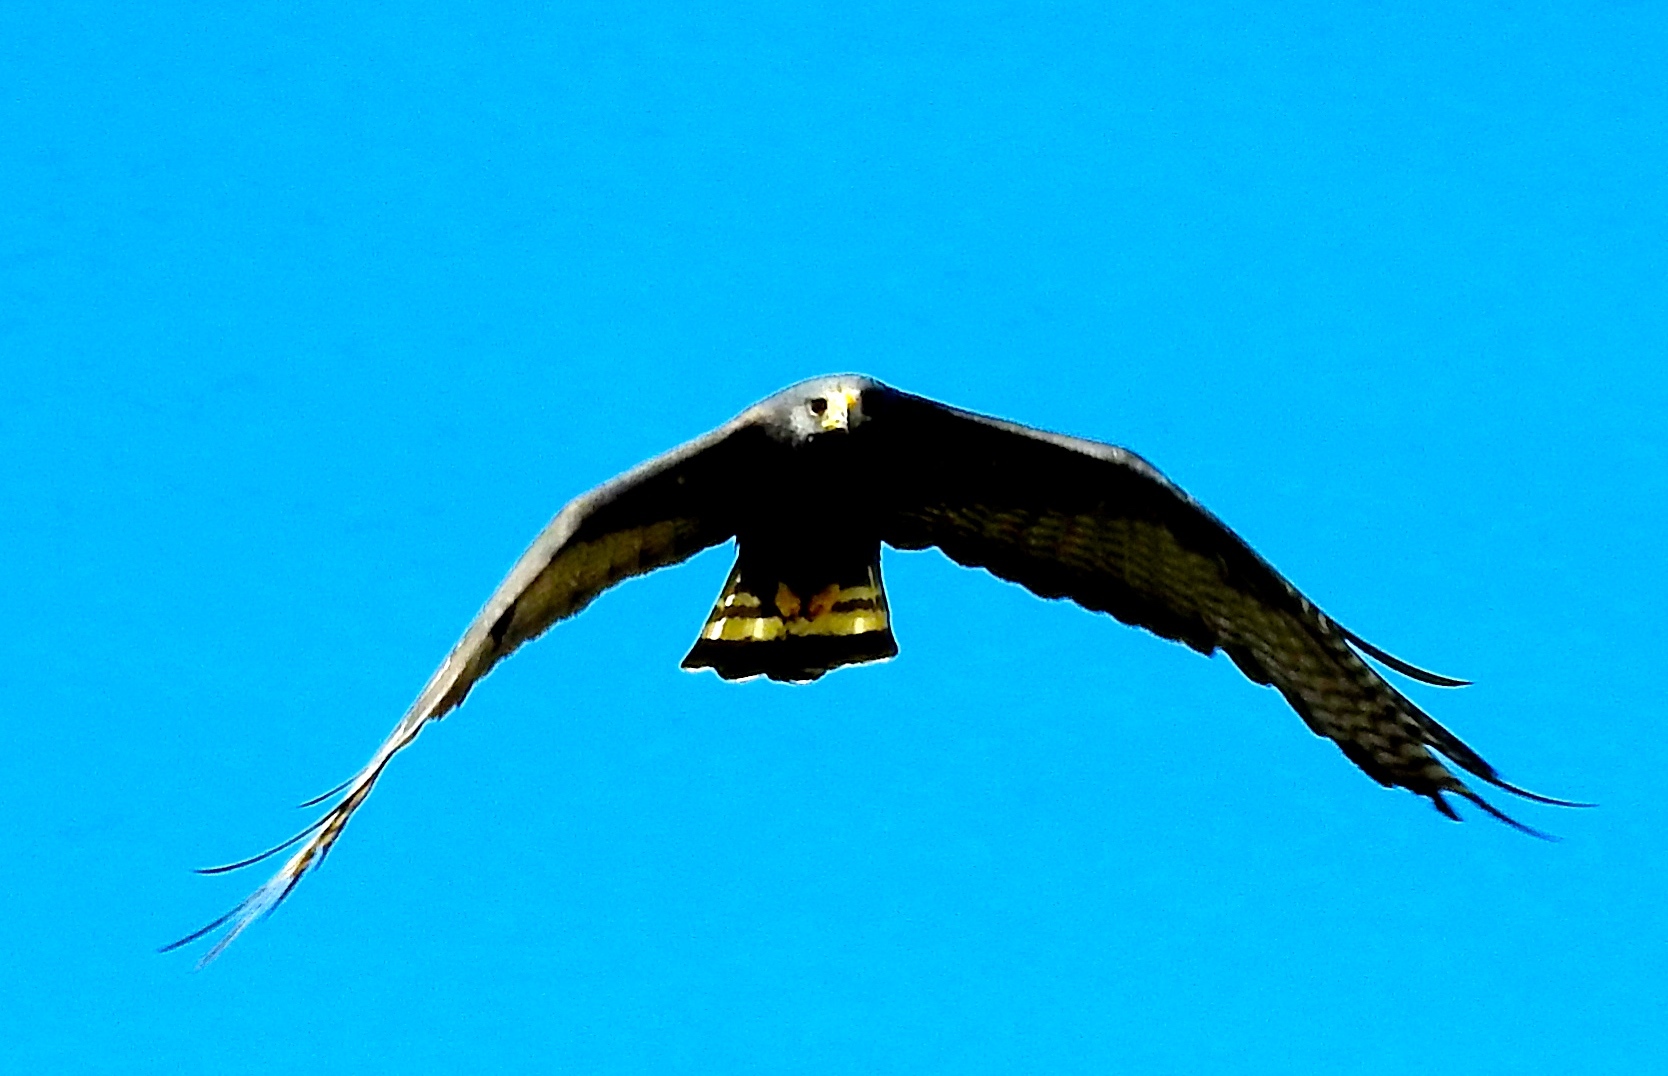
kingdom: Animalia
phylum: Chordata
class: Aves
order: Accipitriformes
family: Accipitridae
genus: Buteo
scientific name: Buteo albonotatus
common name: Zone-tailed hawk
